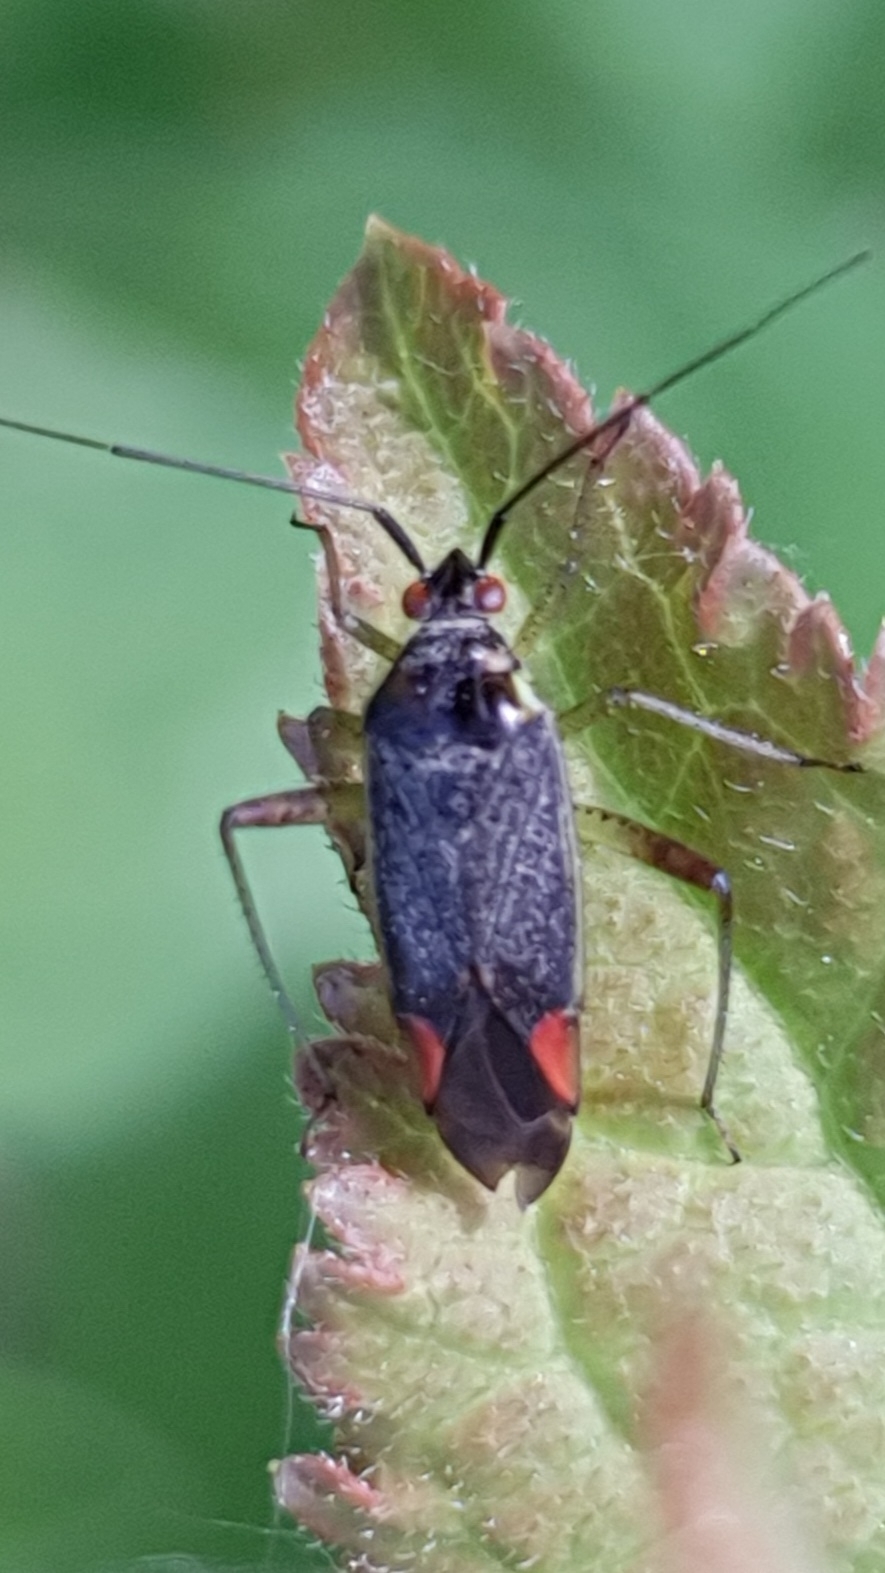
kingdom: Animalia
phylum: Arthropoda
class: Insecta
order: Hemiptera
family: Miridae
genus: Closterotomus
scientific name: Closterotomus trivialis
